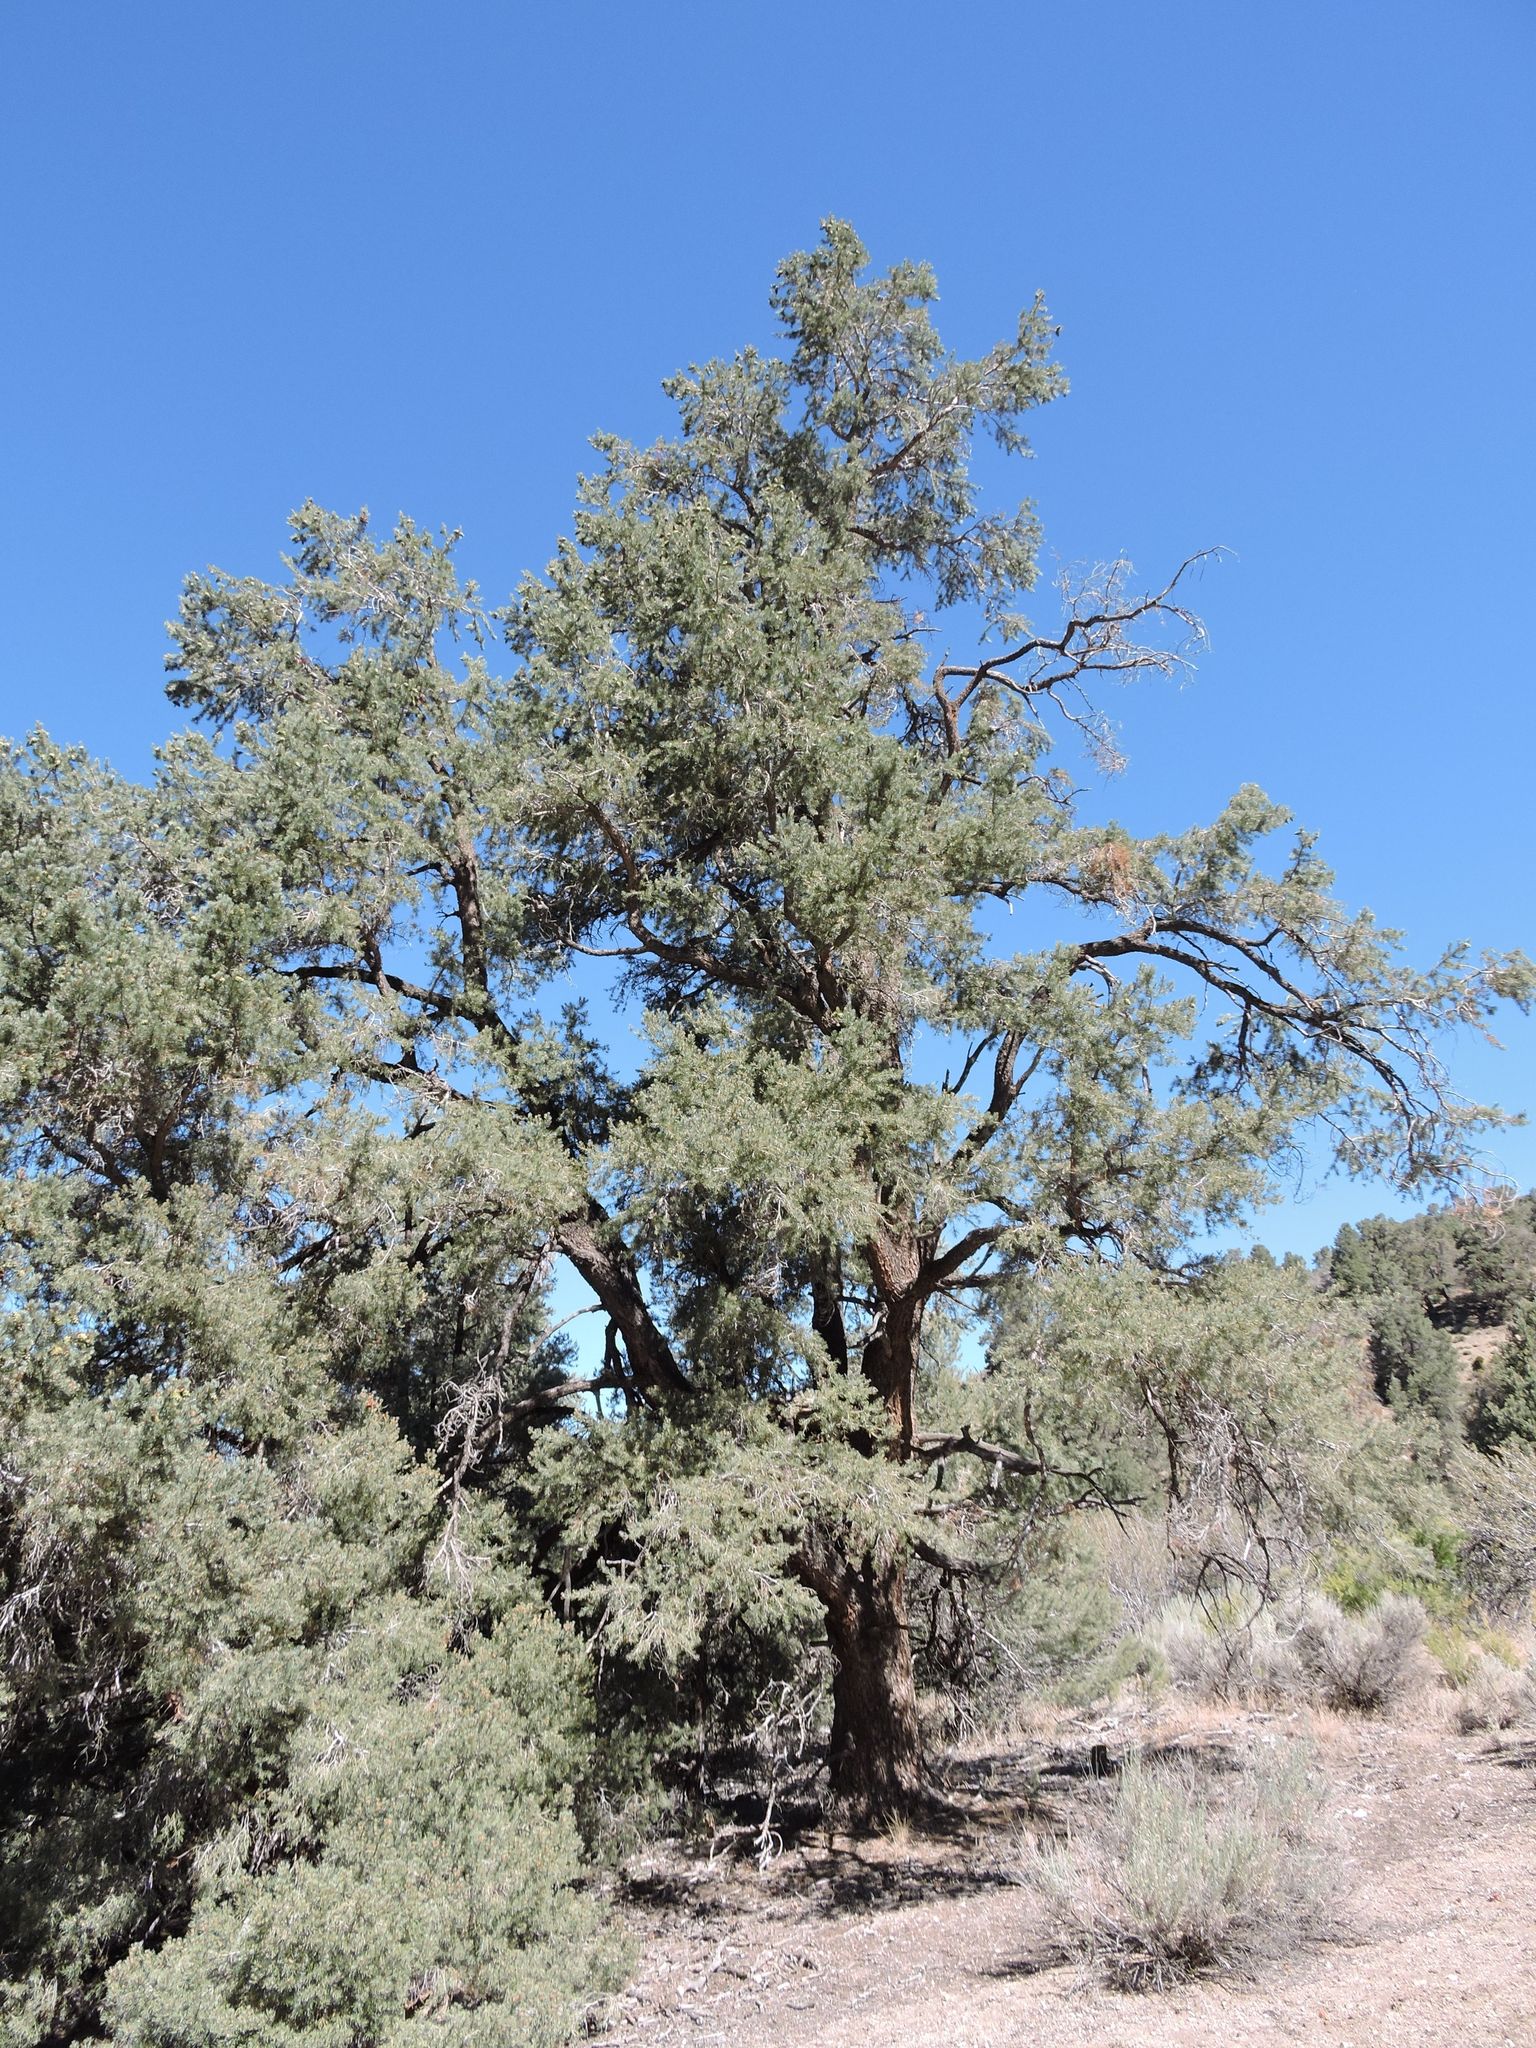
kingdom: Plantae
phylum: Tracheophyta
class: Pinopsida
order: Pinales
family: Pinaceae
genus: Pinus
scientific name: Pinus monophylla
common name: One-leaved nut pine
